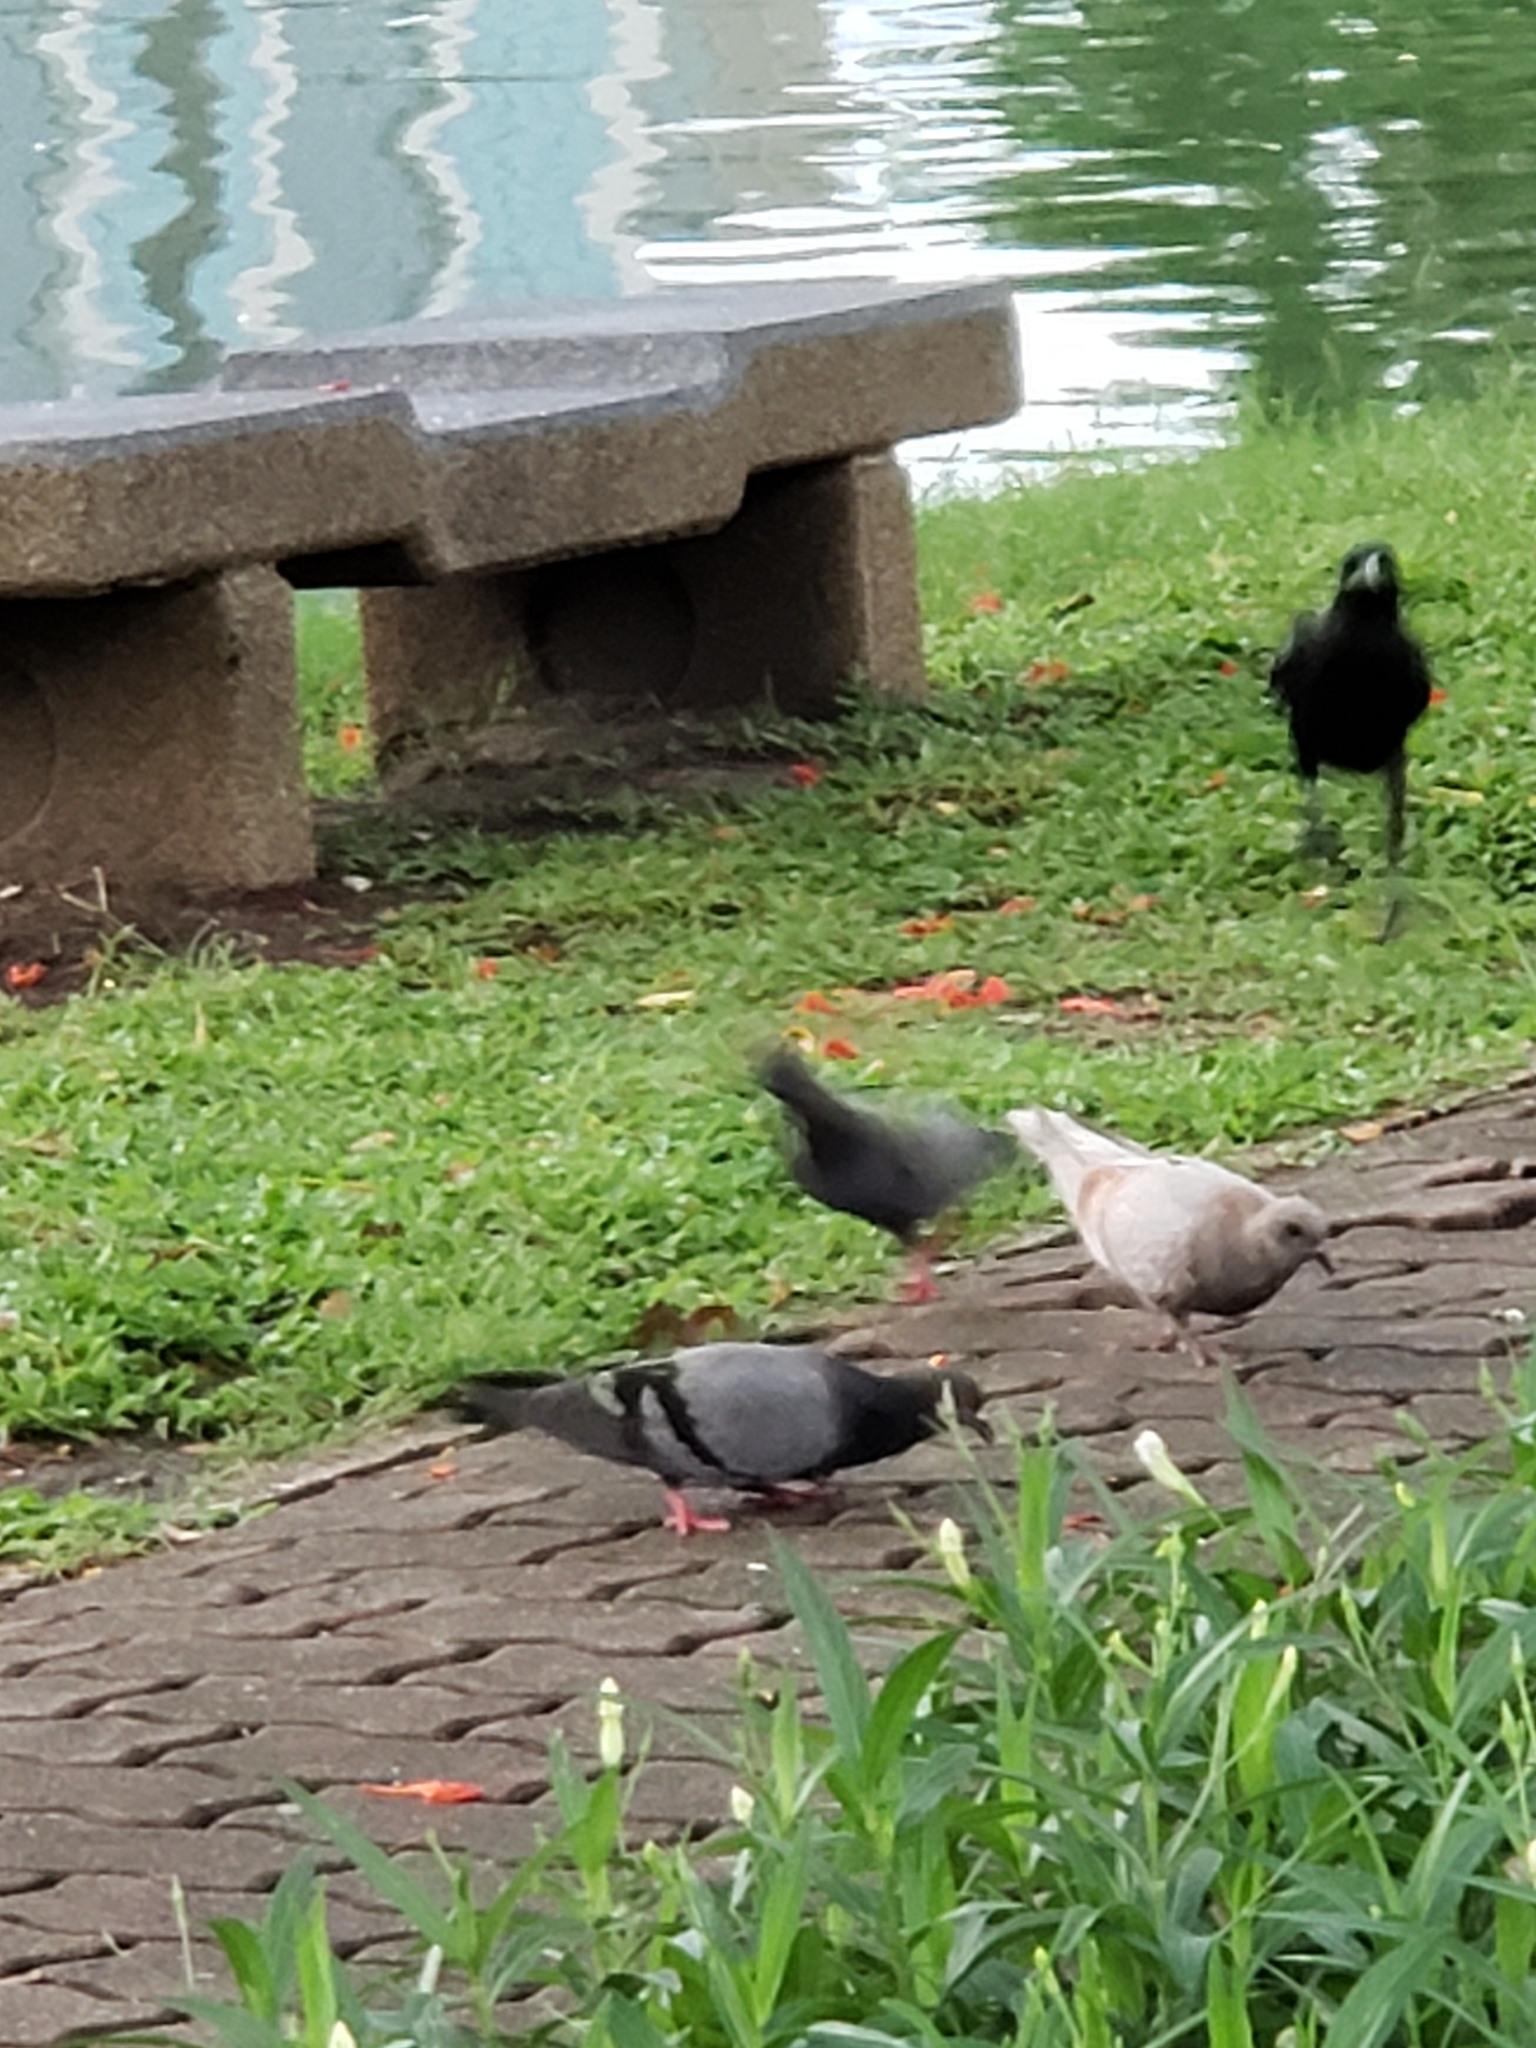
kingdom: Animalia
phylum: Chordata
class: Aves
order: Columbiformes
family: Columbidae
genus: Columba
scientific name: Columba livia
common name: Rock pigeon
